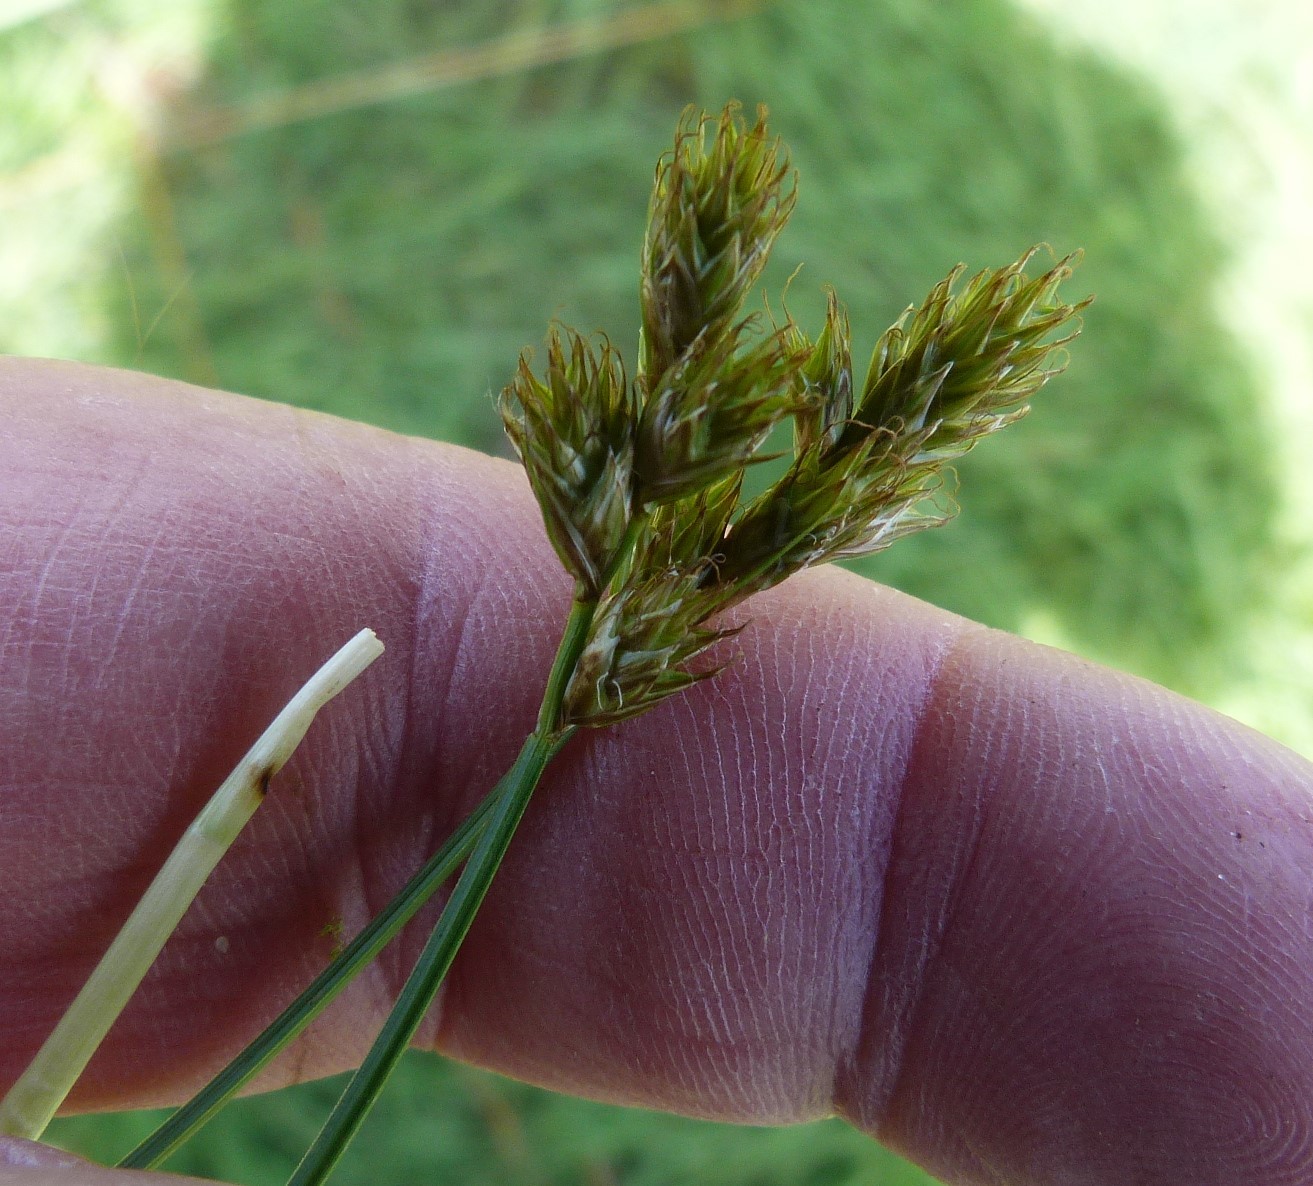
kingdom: Plantae
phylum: Tracheophyta
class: Liliopsida
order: Poales
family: Cyperaceae
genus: Carex
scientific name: Carex leporina
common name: Oval sedge
